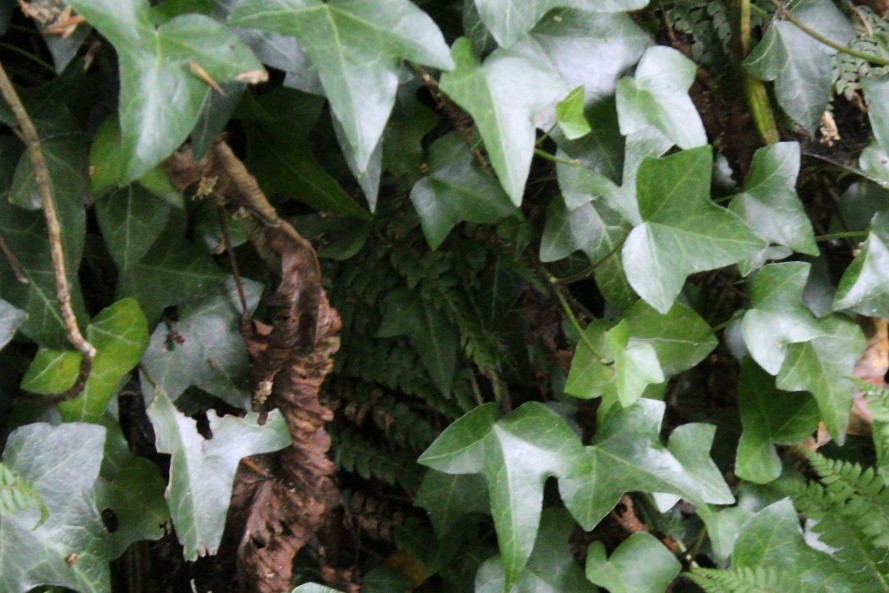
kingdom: Plantae
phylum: Tracheophyta
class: Magnoliopsida
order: Apiales
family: Araliaceae
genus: Hedera
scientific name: Hedera helix
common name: Ivy
